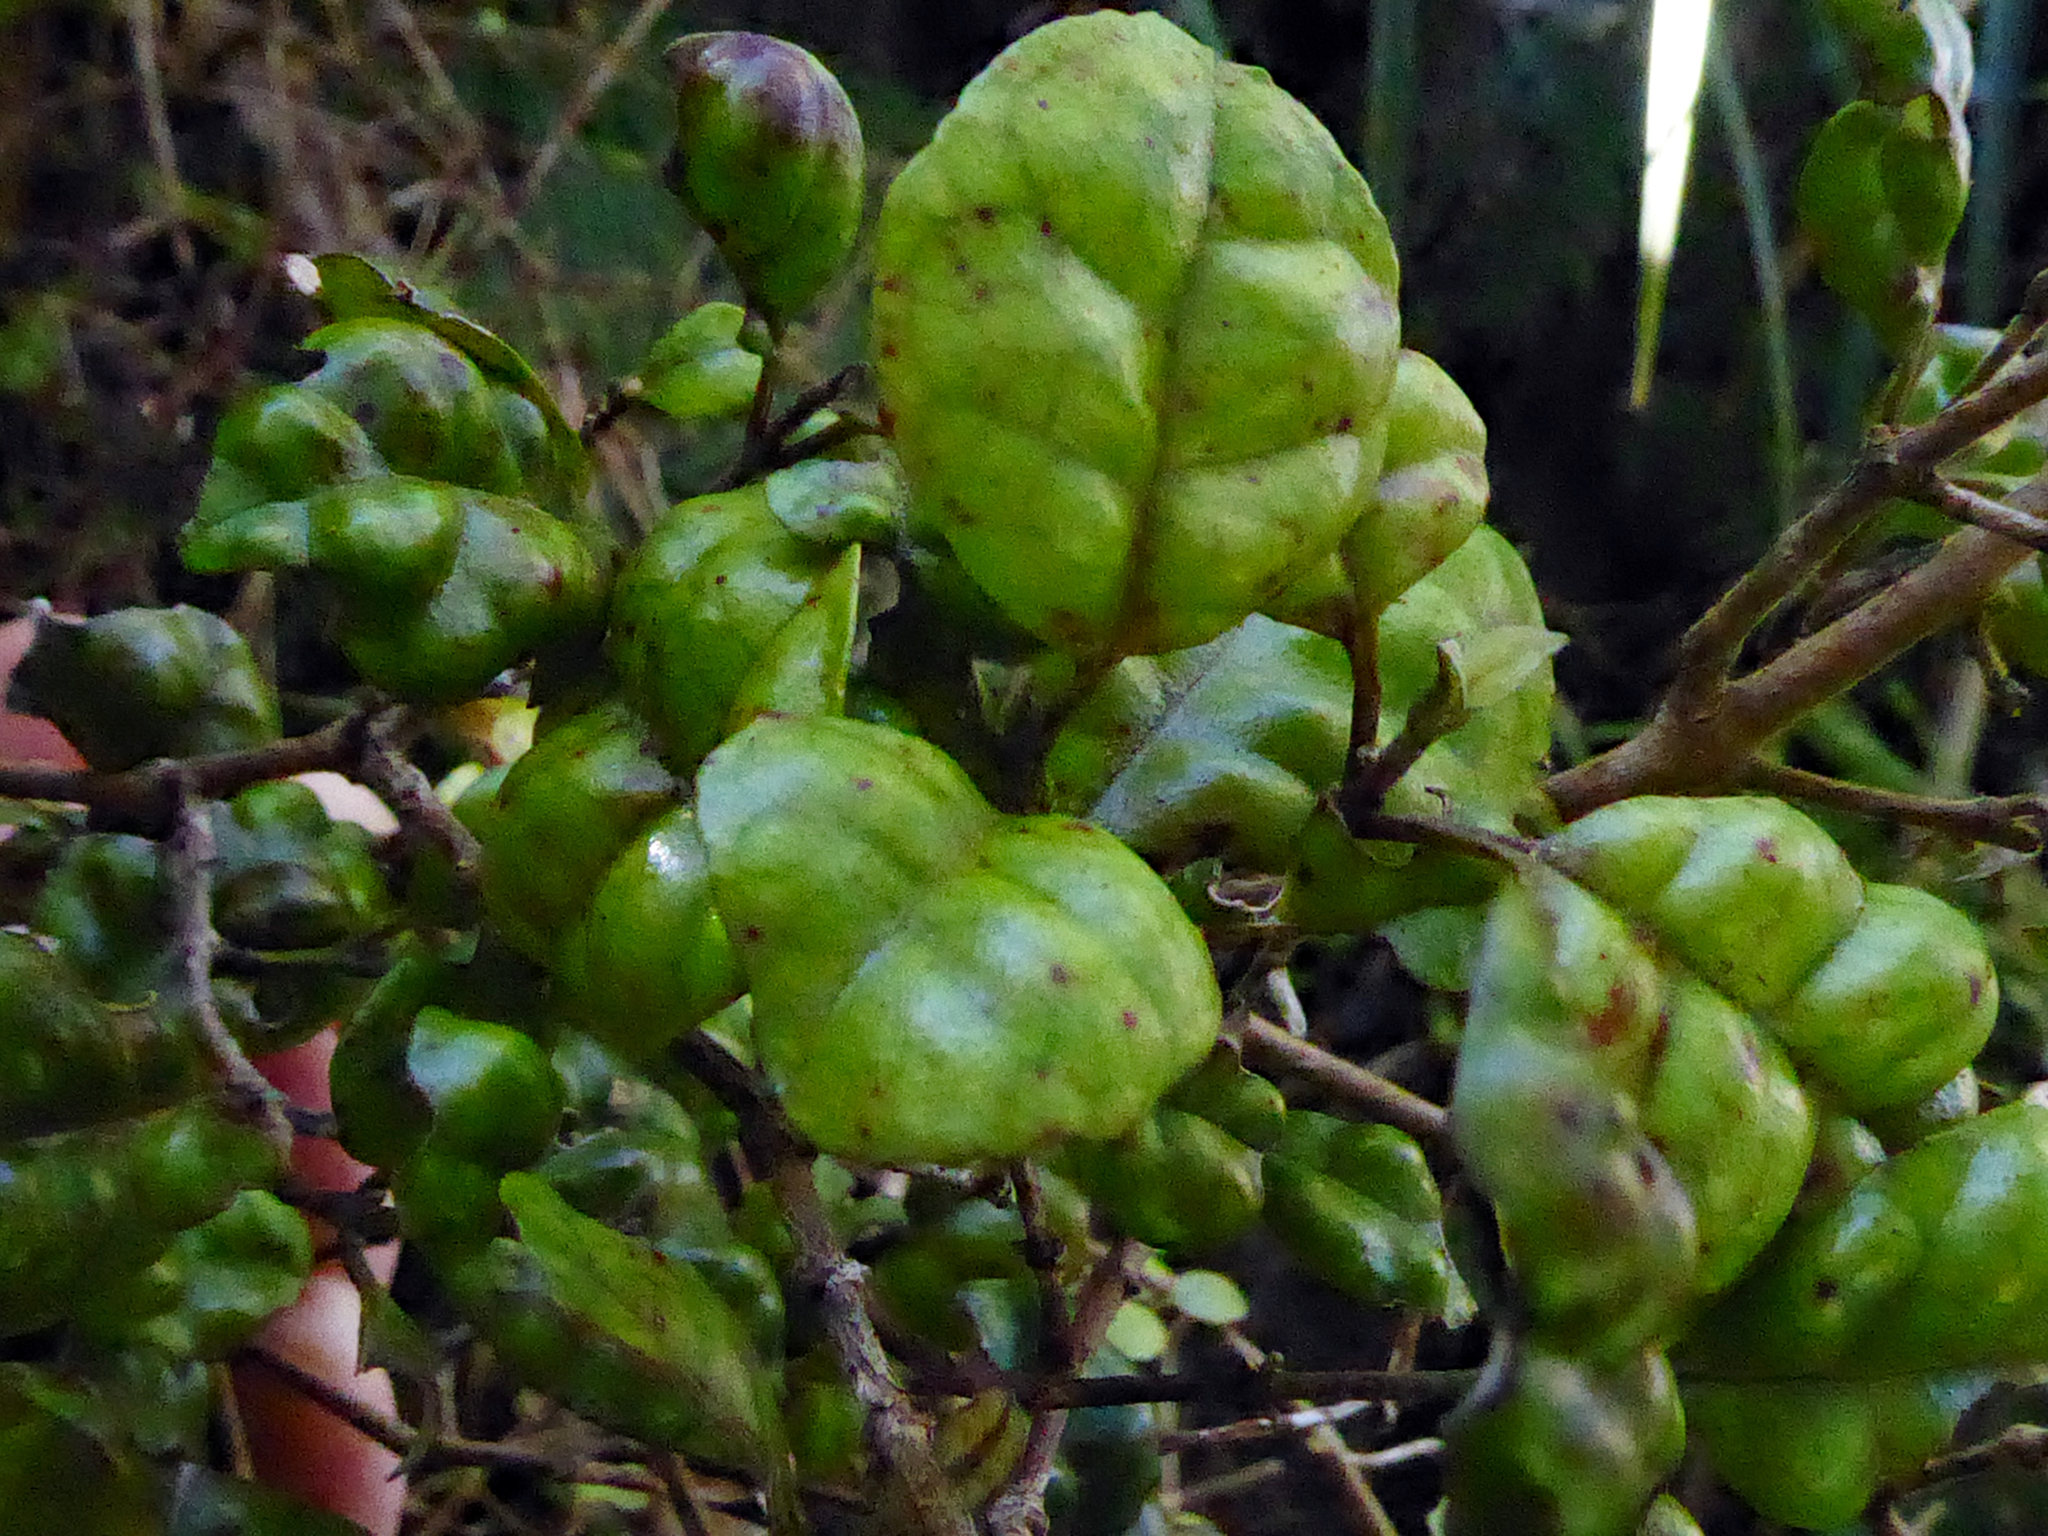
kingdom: Plantae
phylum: Tracheophyta
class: Magnoliopsida
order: Myrtales
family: Myrtaceae
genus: Lophomyrtus
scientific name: Lophomyrtus bullata
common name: Rama rama
